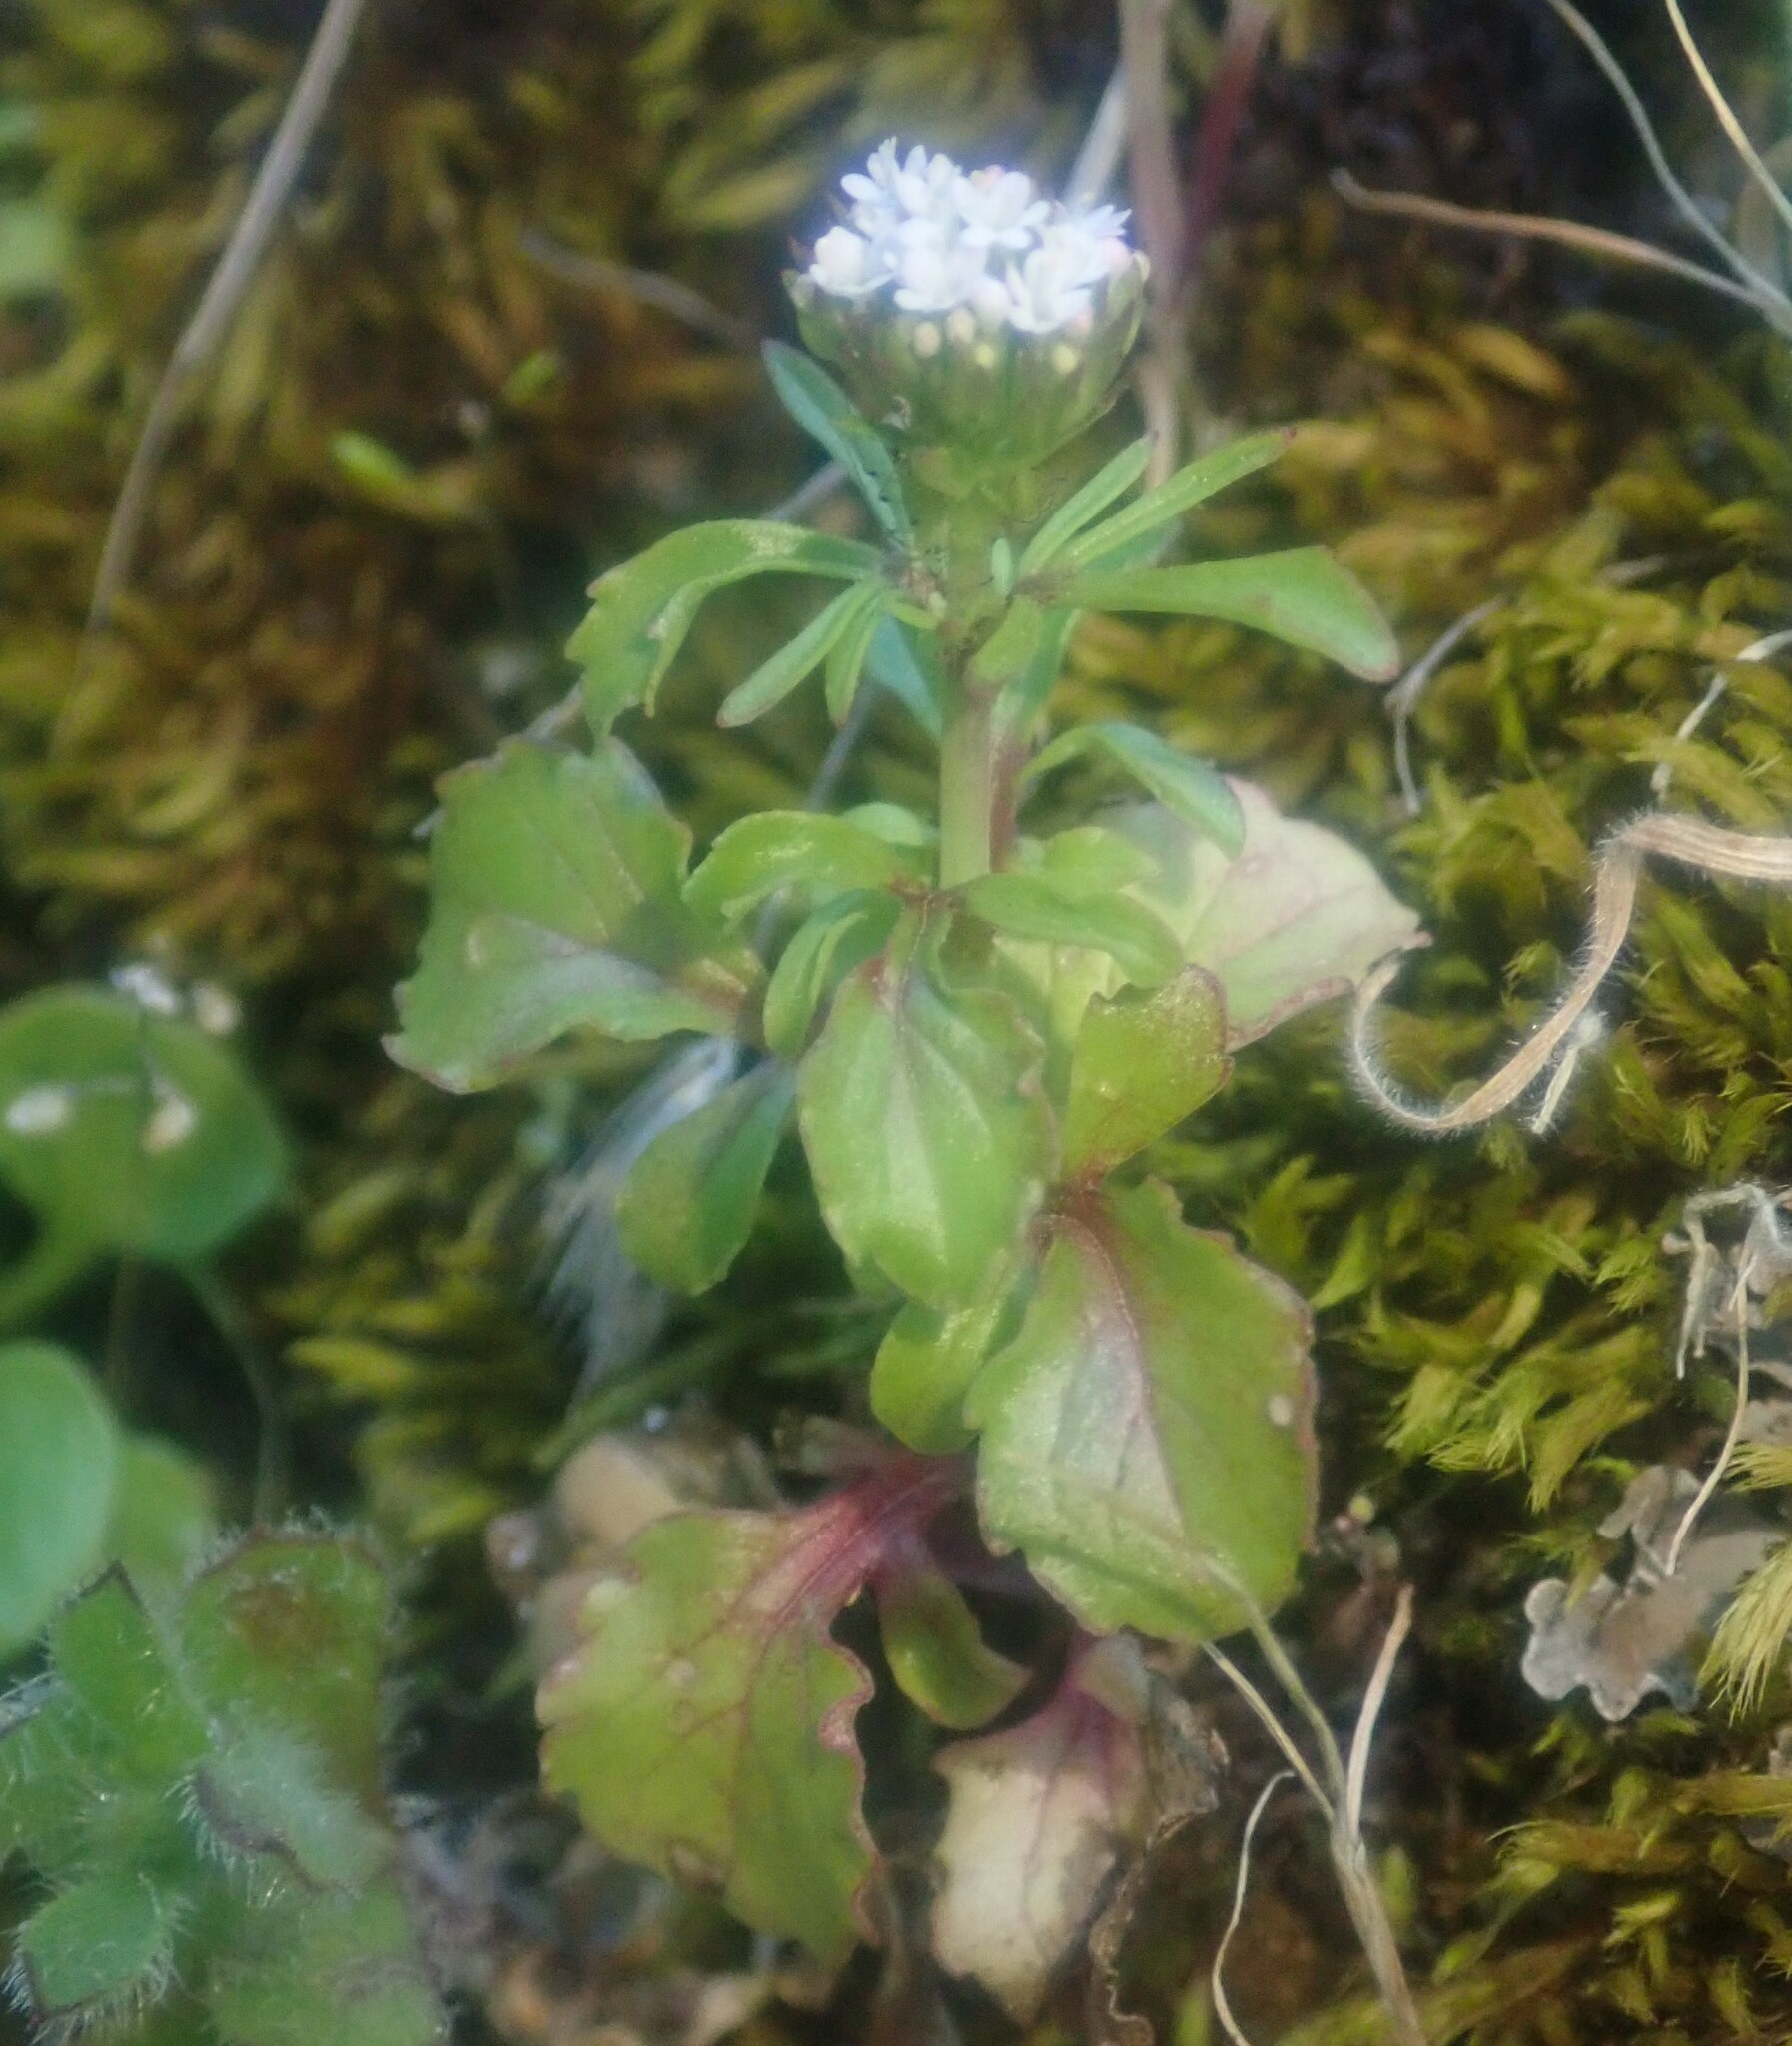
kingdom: Plantae
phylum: Tracheophyta
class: Magnoliopsida
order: Dipsacales
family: Caprifoliaceae
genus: Centranthus
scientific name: Centranthus calcitrapae
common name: Annual valerian
